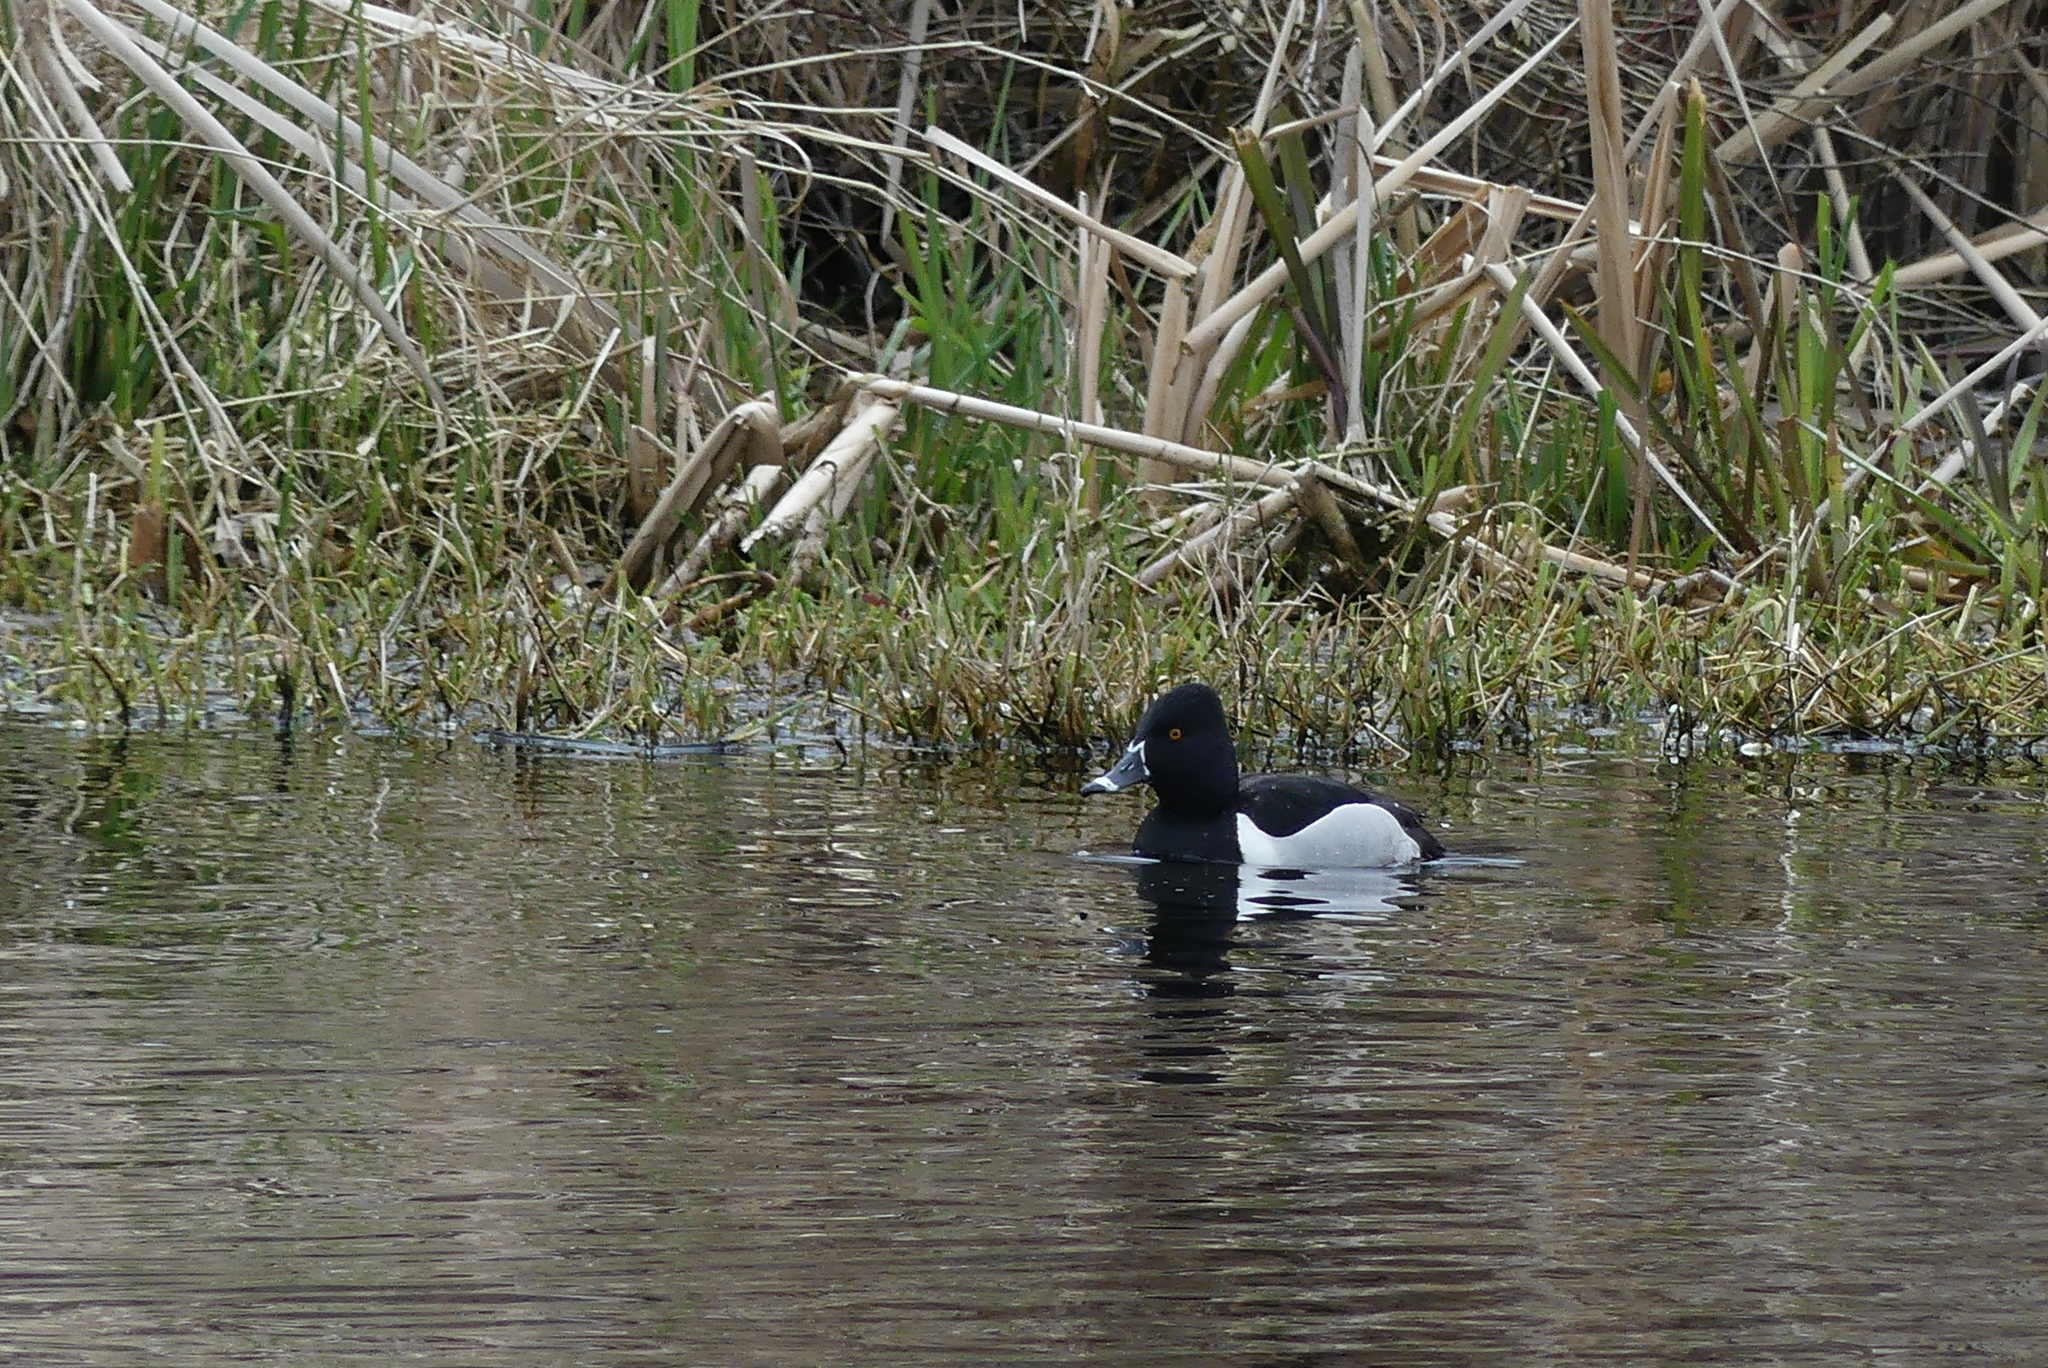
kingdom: Animalia
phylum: Chordata
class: Aves
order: Anseriformes
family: Anatidae
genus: Aythya
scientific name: Aythya collaris
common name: Ring-necked duck
